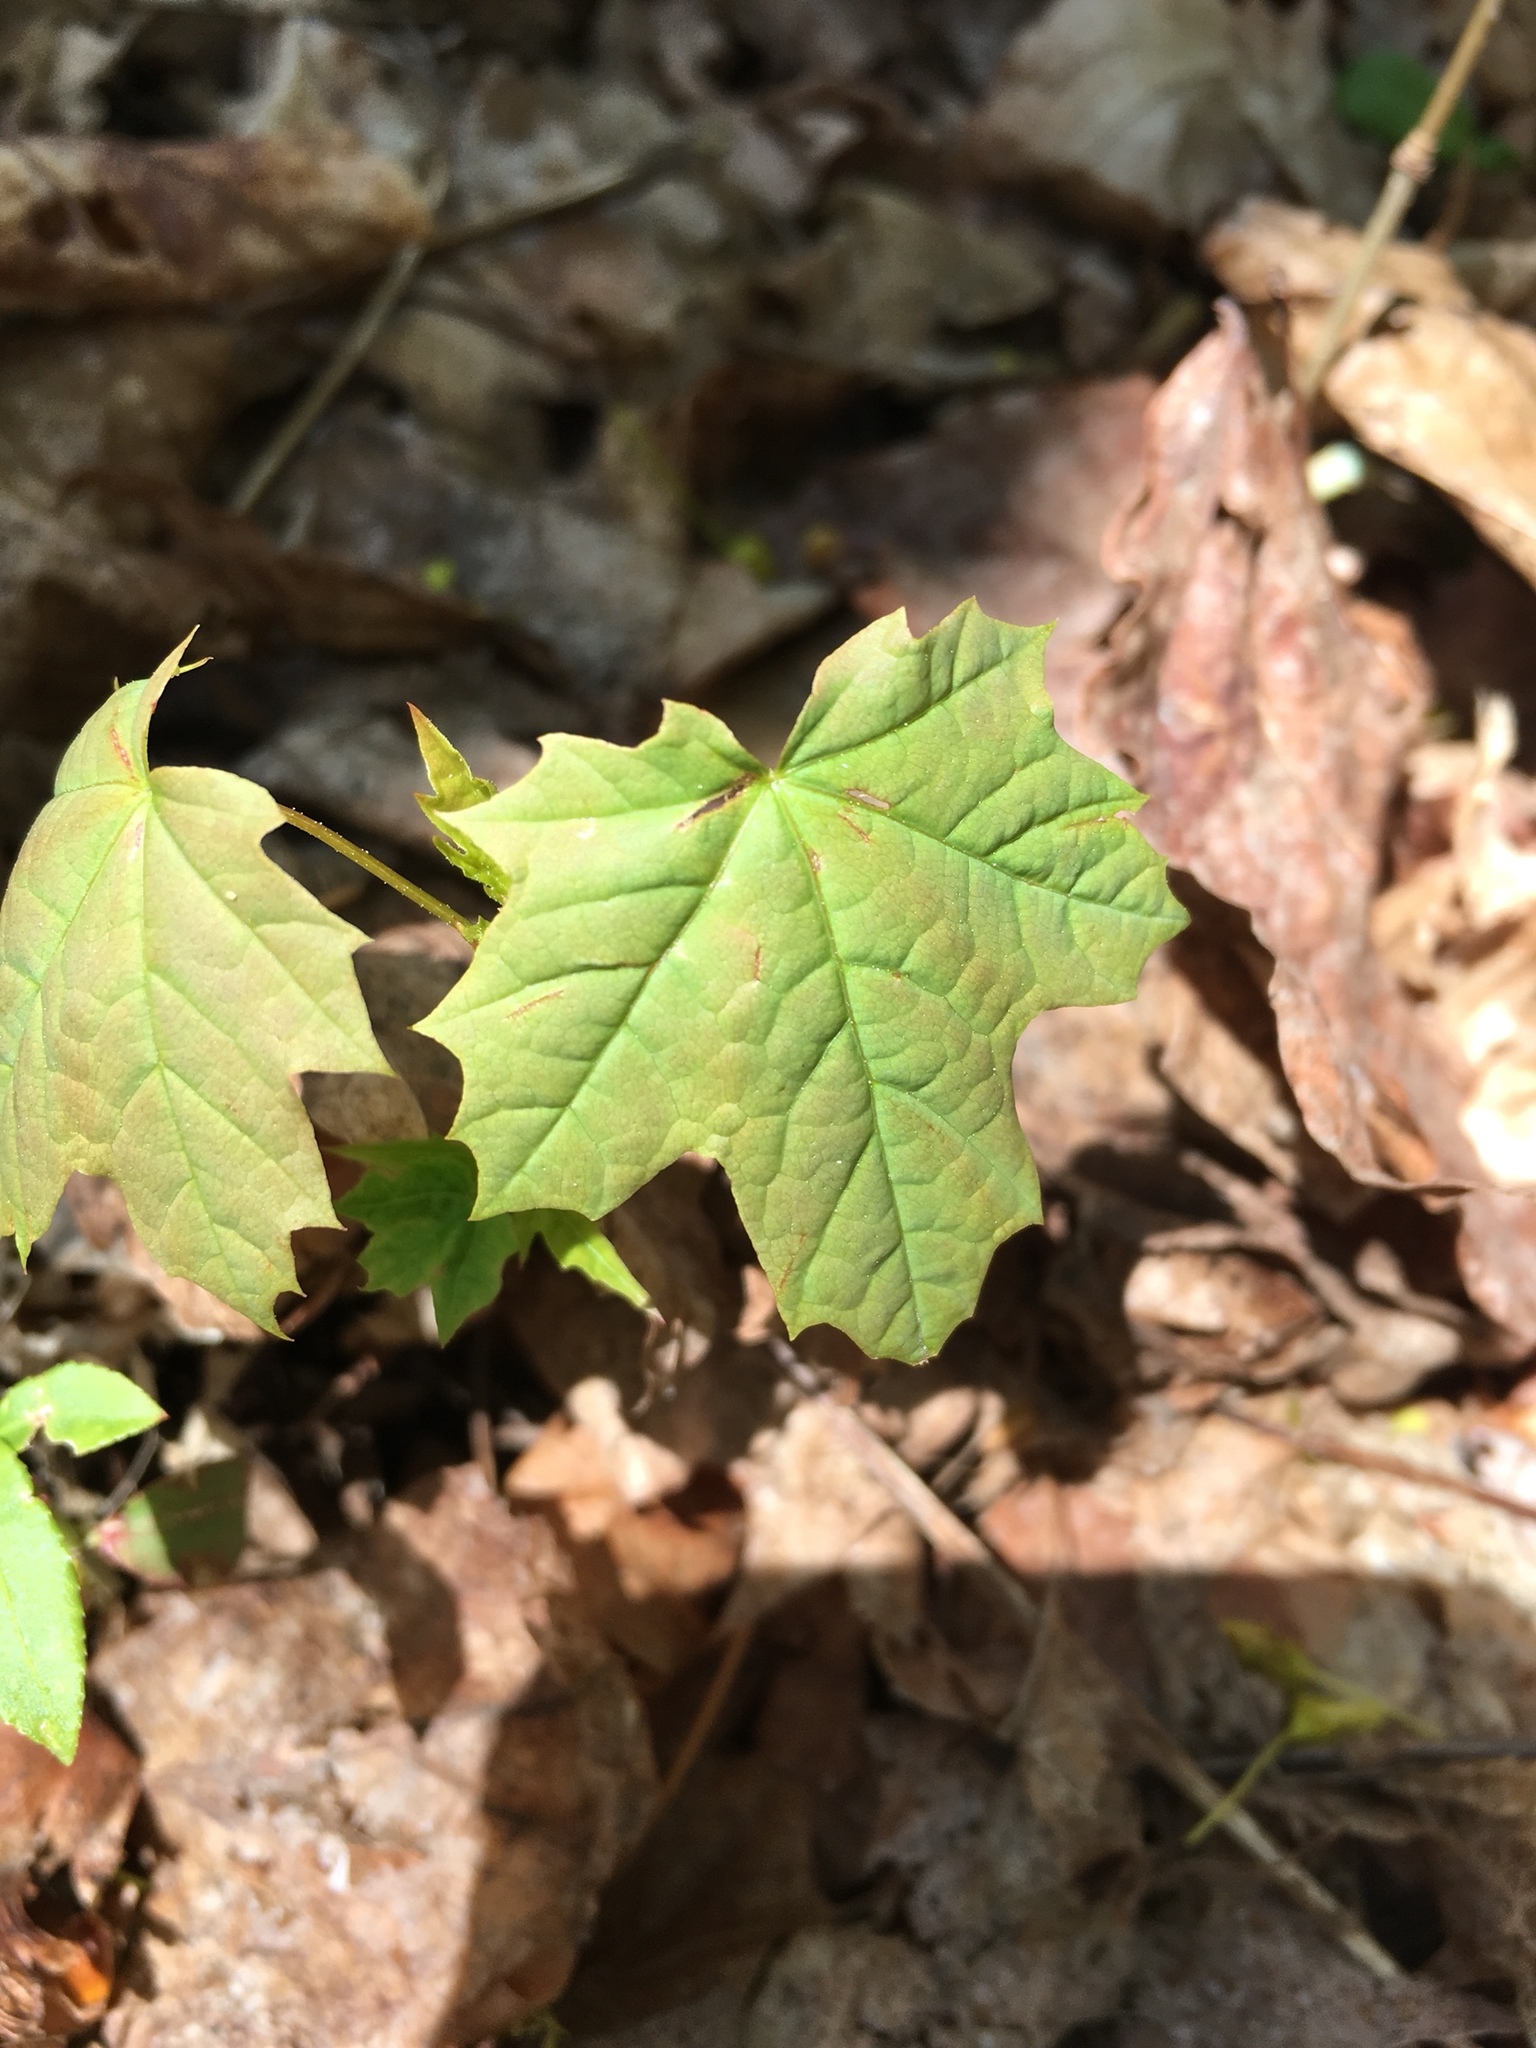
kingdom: Plantae
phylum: Tracheophyta
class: Magnoliopsida
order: Sapindales
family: Sapindaceae
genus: Acer
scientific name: Acer platanoides
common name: Norway maple
